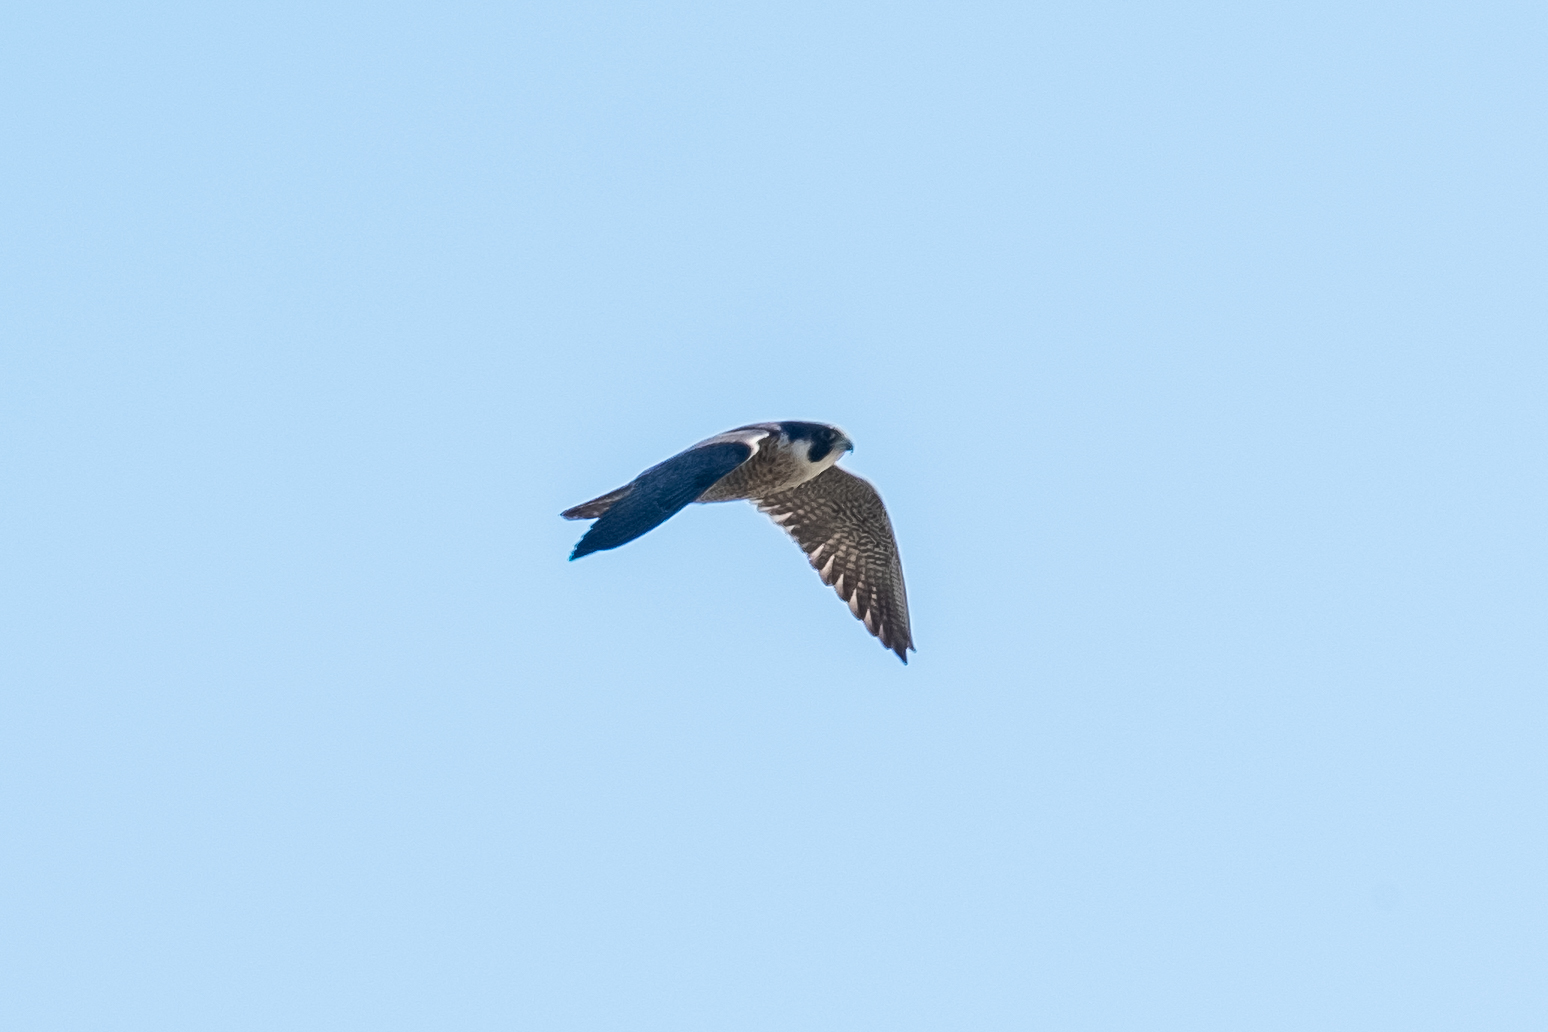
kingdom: Animalia
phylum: Chordata
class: Aves
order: Falconiformes
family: Falconidae
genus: Falco
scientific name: Falco peregrinus
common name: Peregrine falcon
